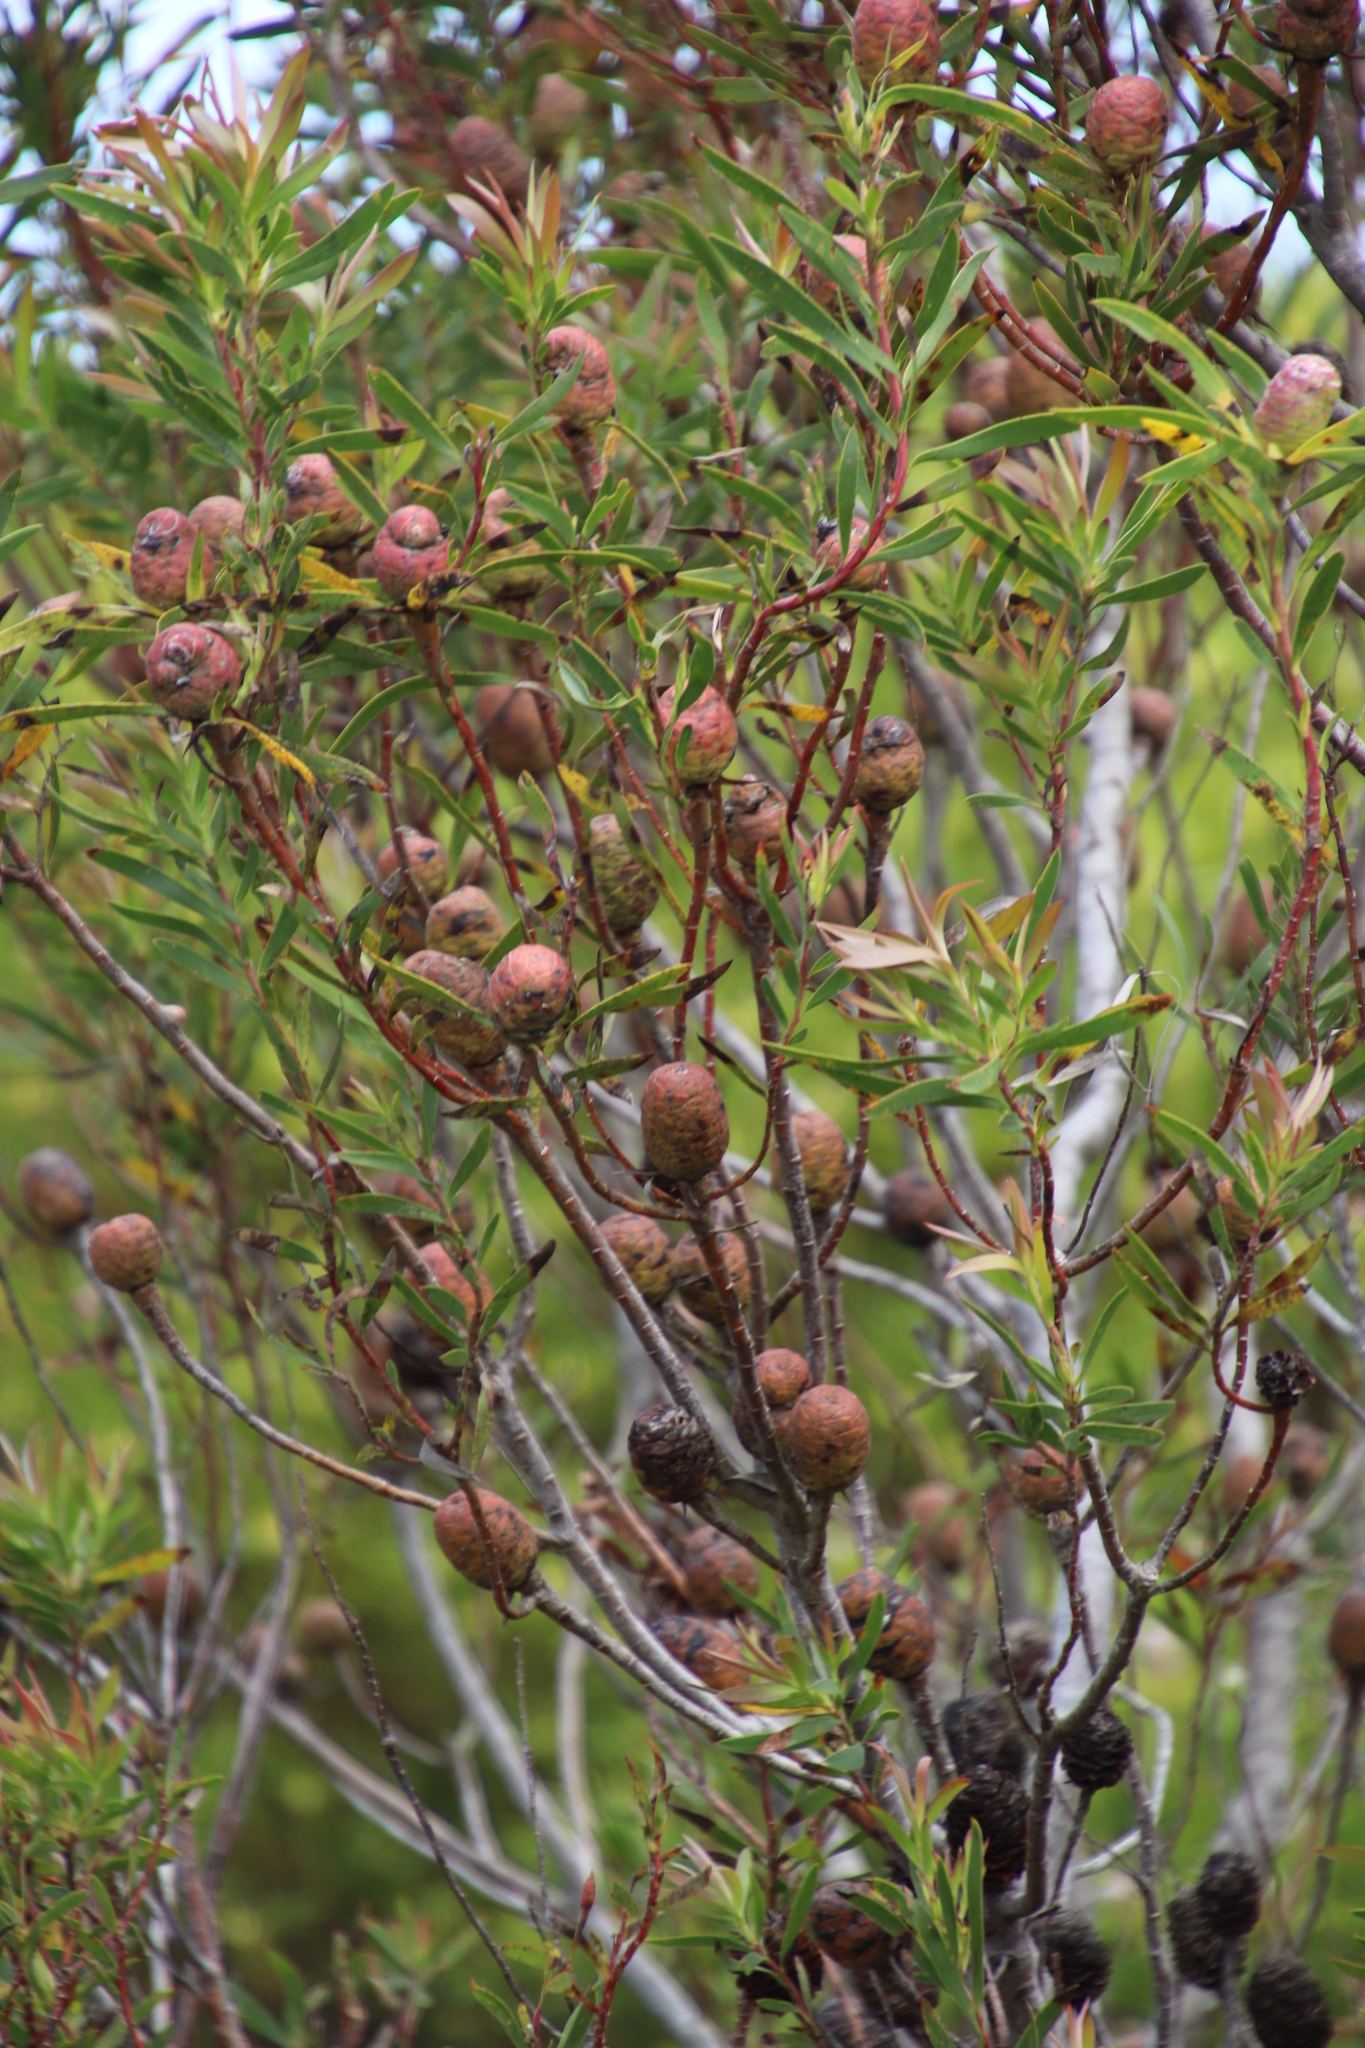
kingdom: Plantae
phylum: Tracheophyta
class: Magnoliopsida
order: Proteales
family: Proteaceae
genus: Leucadendron
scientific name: Leucadendron coniferum
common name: Dune conebush
